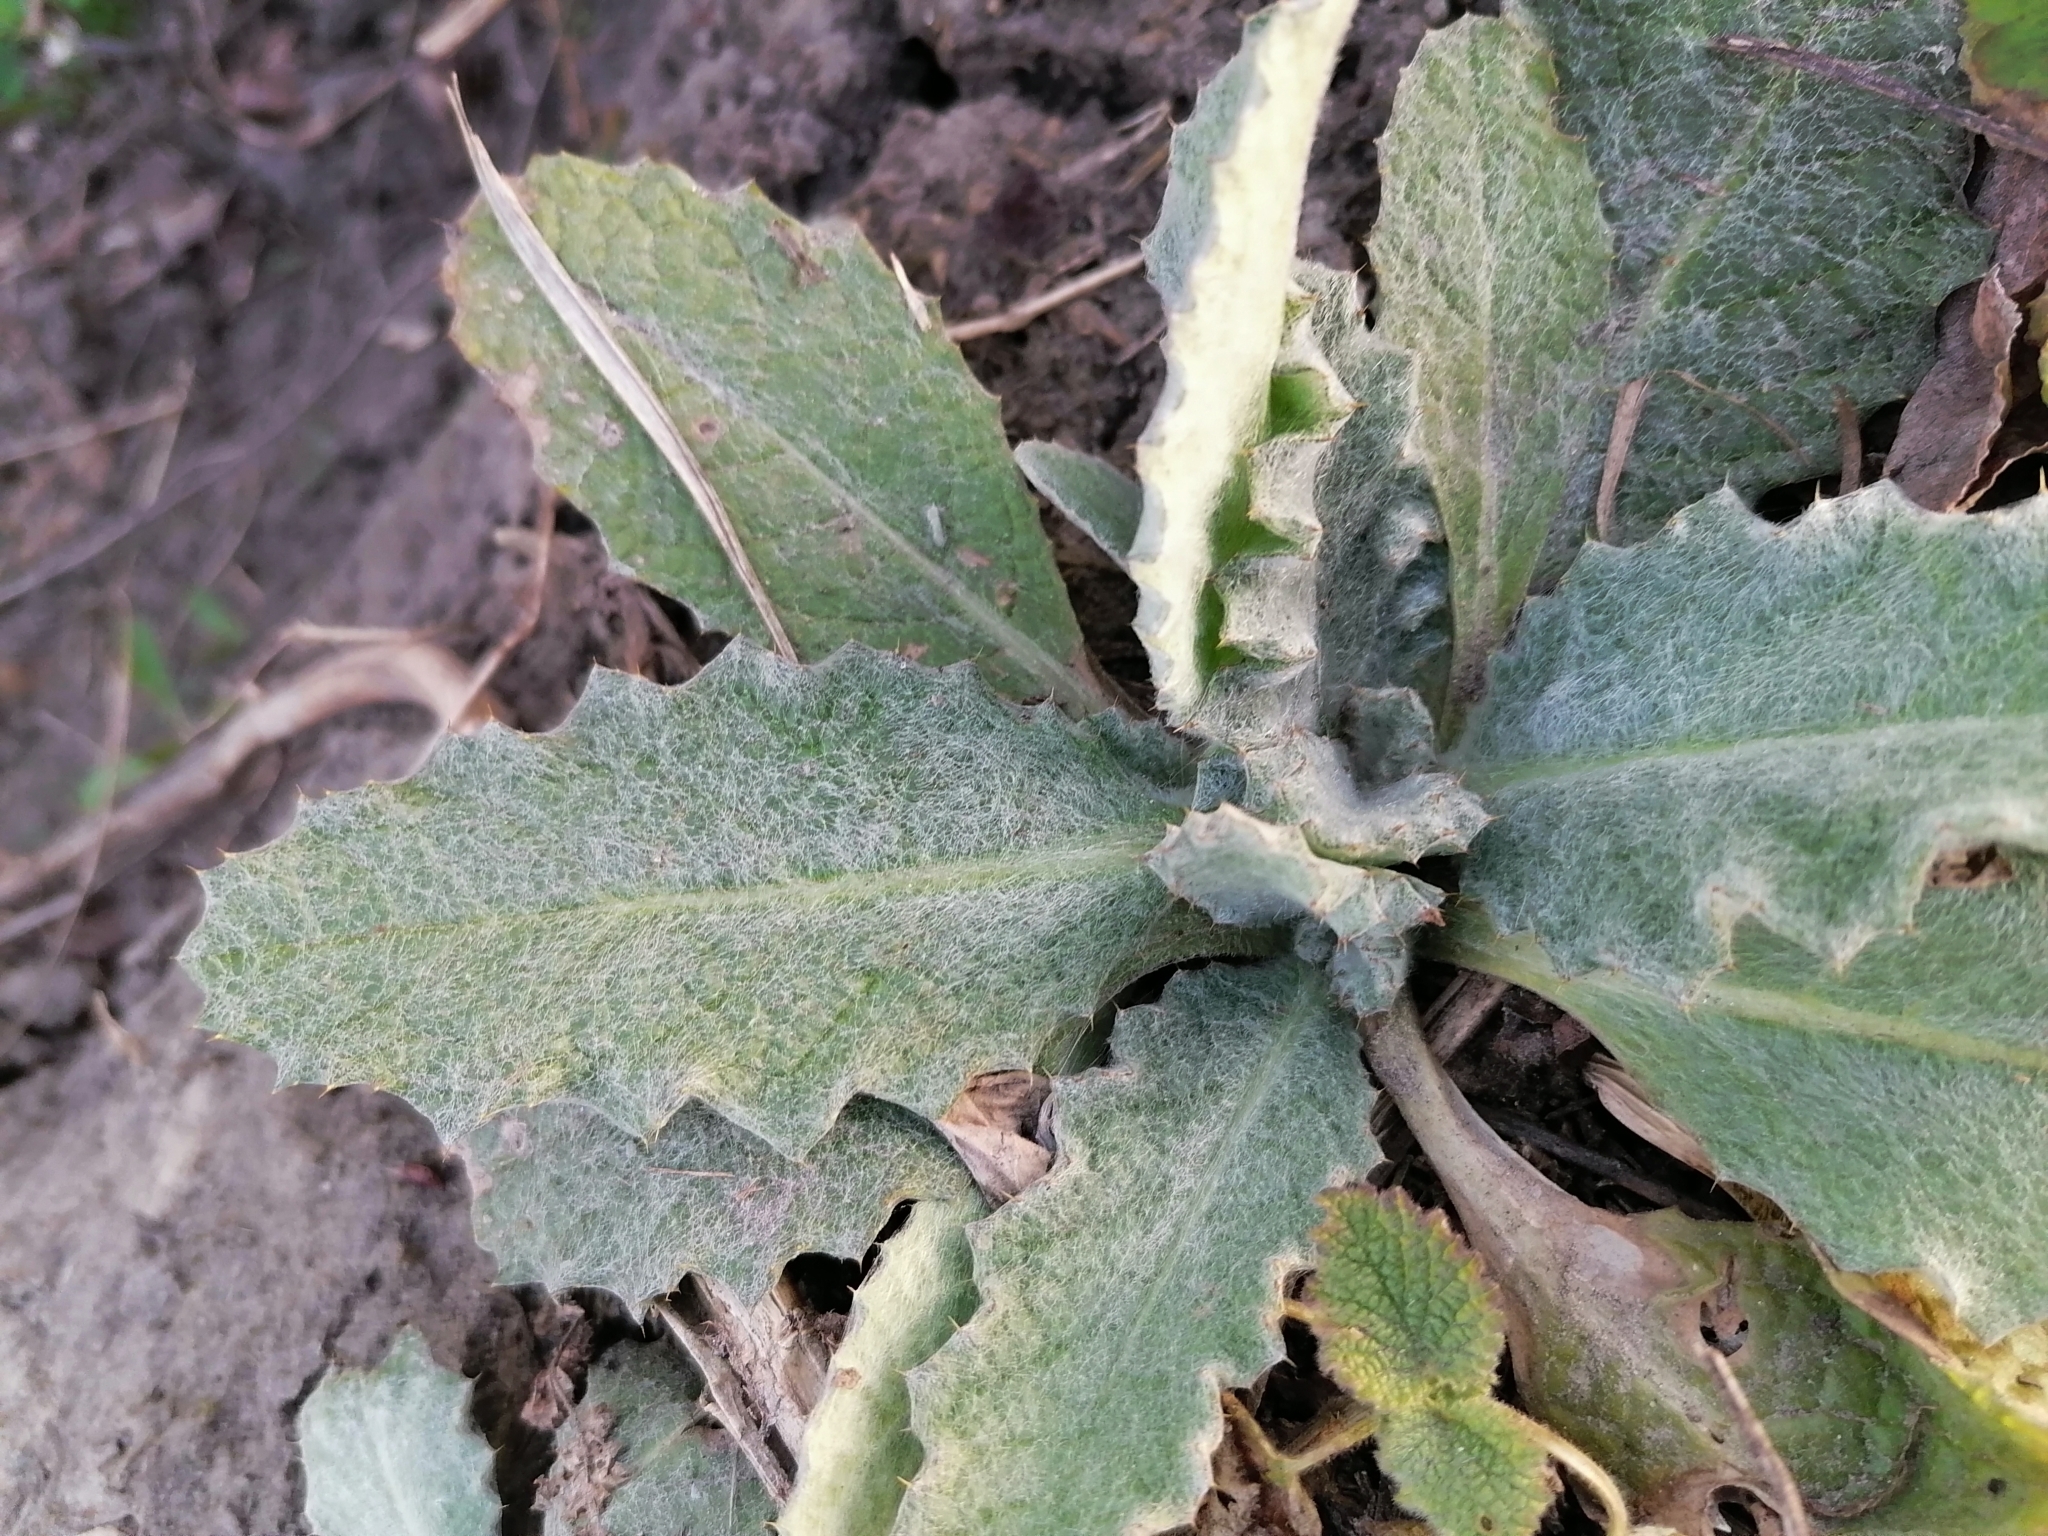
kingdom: Plantae
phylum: Tracheophyta
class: Magnoliopsida
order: Asterales
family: Asteraceae
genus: Onopordum
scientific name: Onopordum acanthium
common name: Scotch thistle
